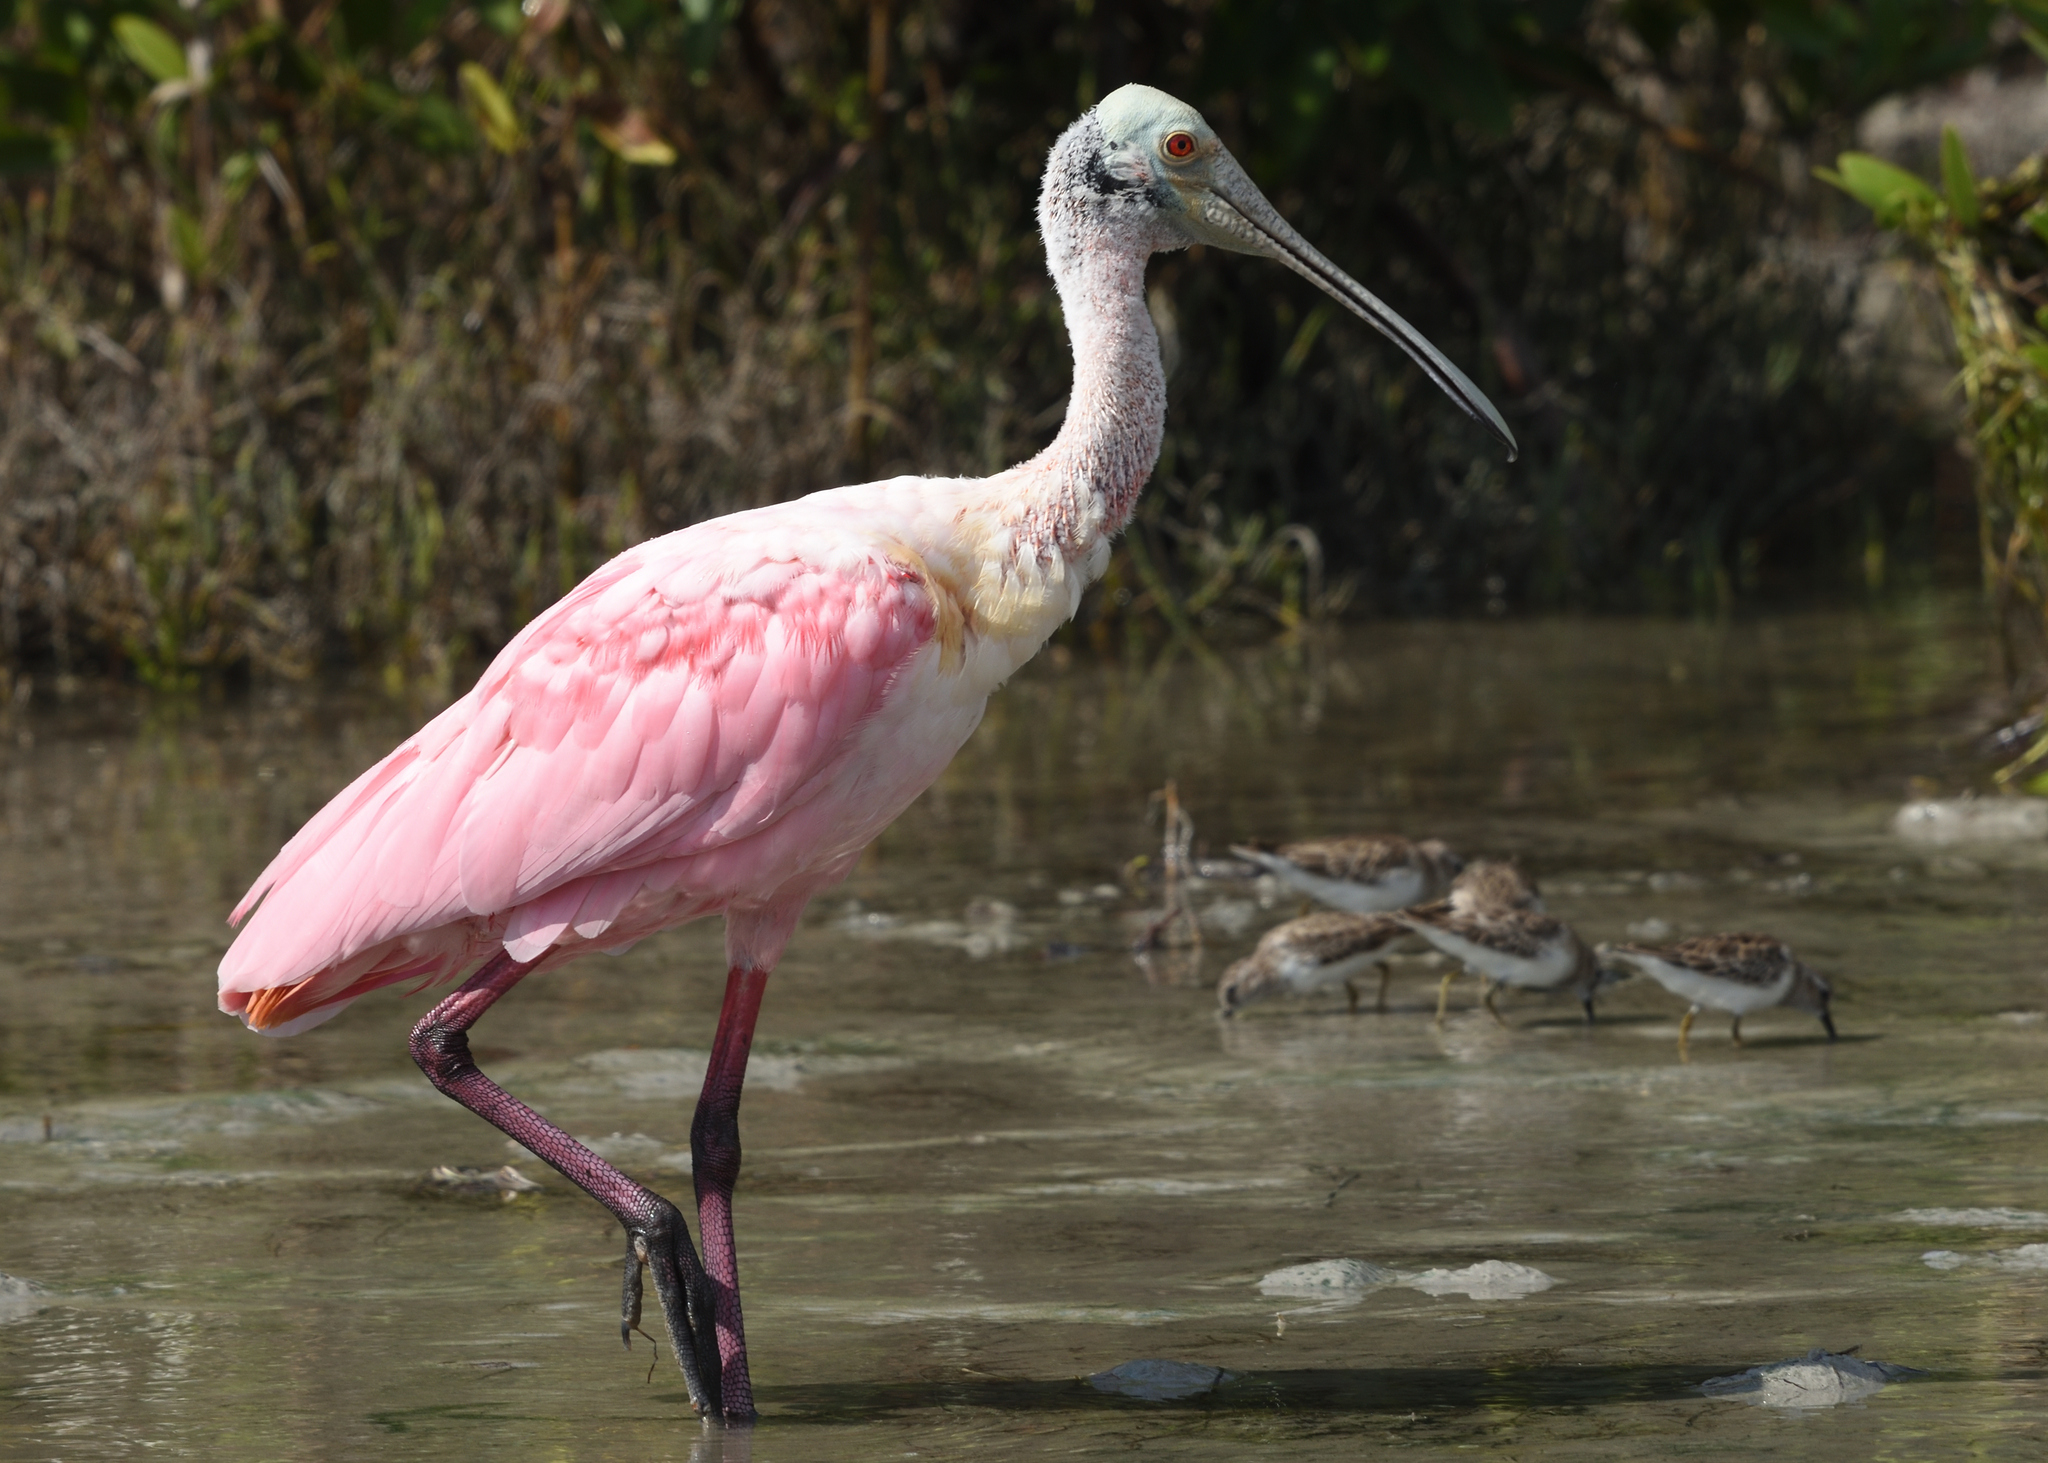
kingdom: Animalia
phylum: Chordata
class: Aves
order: Pelecaniformes
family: Threskiornithidae
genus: Platalea
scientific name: Platalea ajaja
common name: Roseate spoonbill
